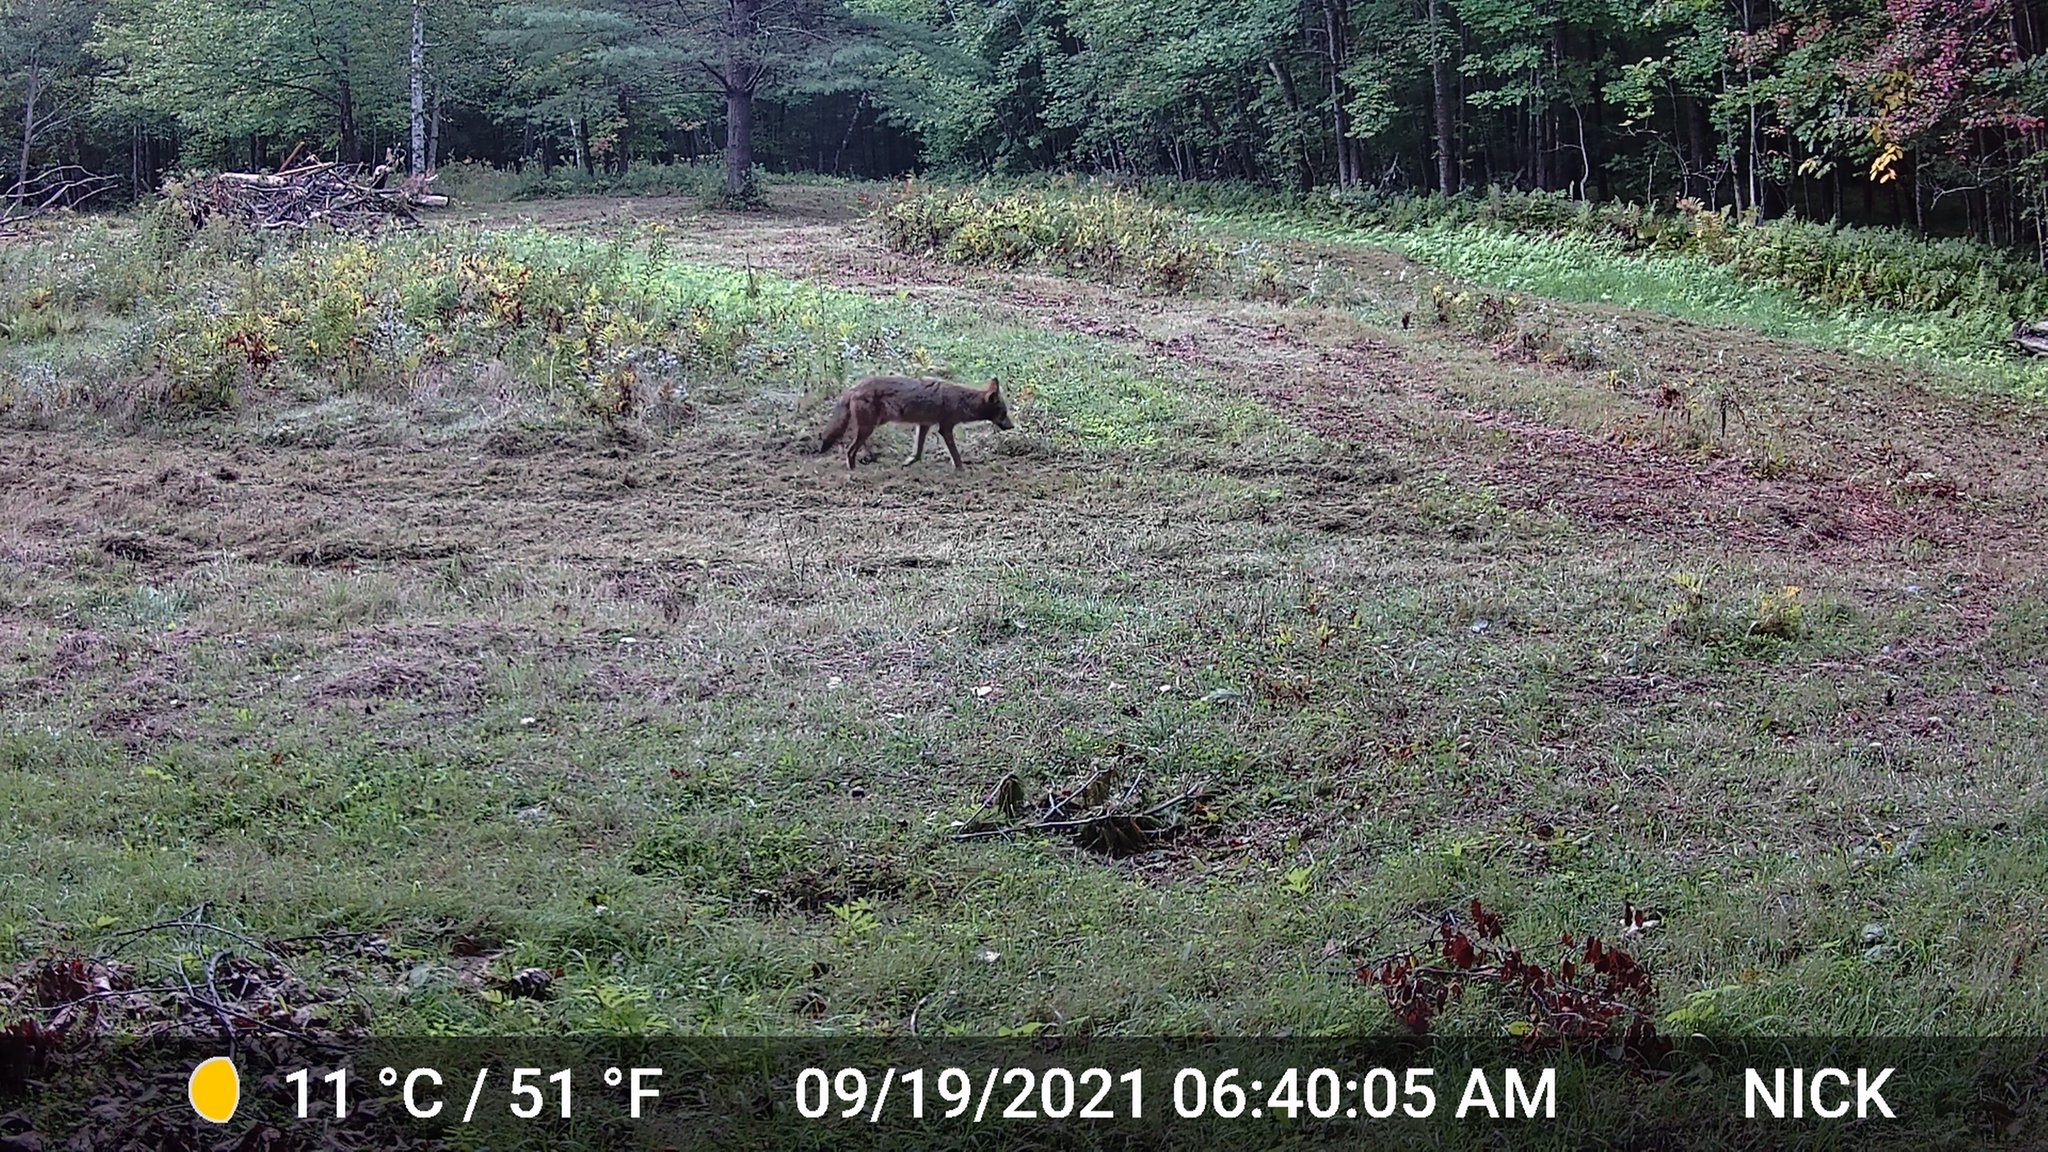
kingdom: Animalia
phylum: Chordata
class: Mammalia
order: Carnivora
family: Canidae
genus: Canis
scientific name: Canis latrans
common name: Coyote
